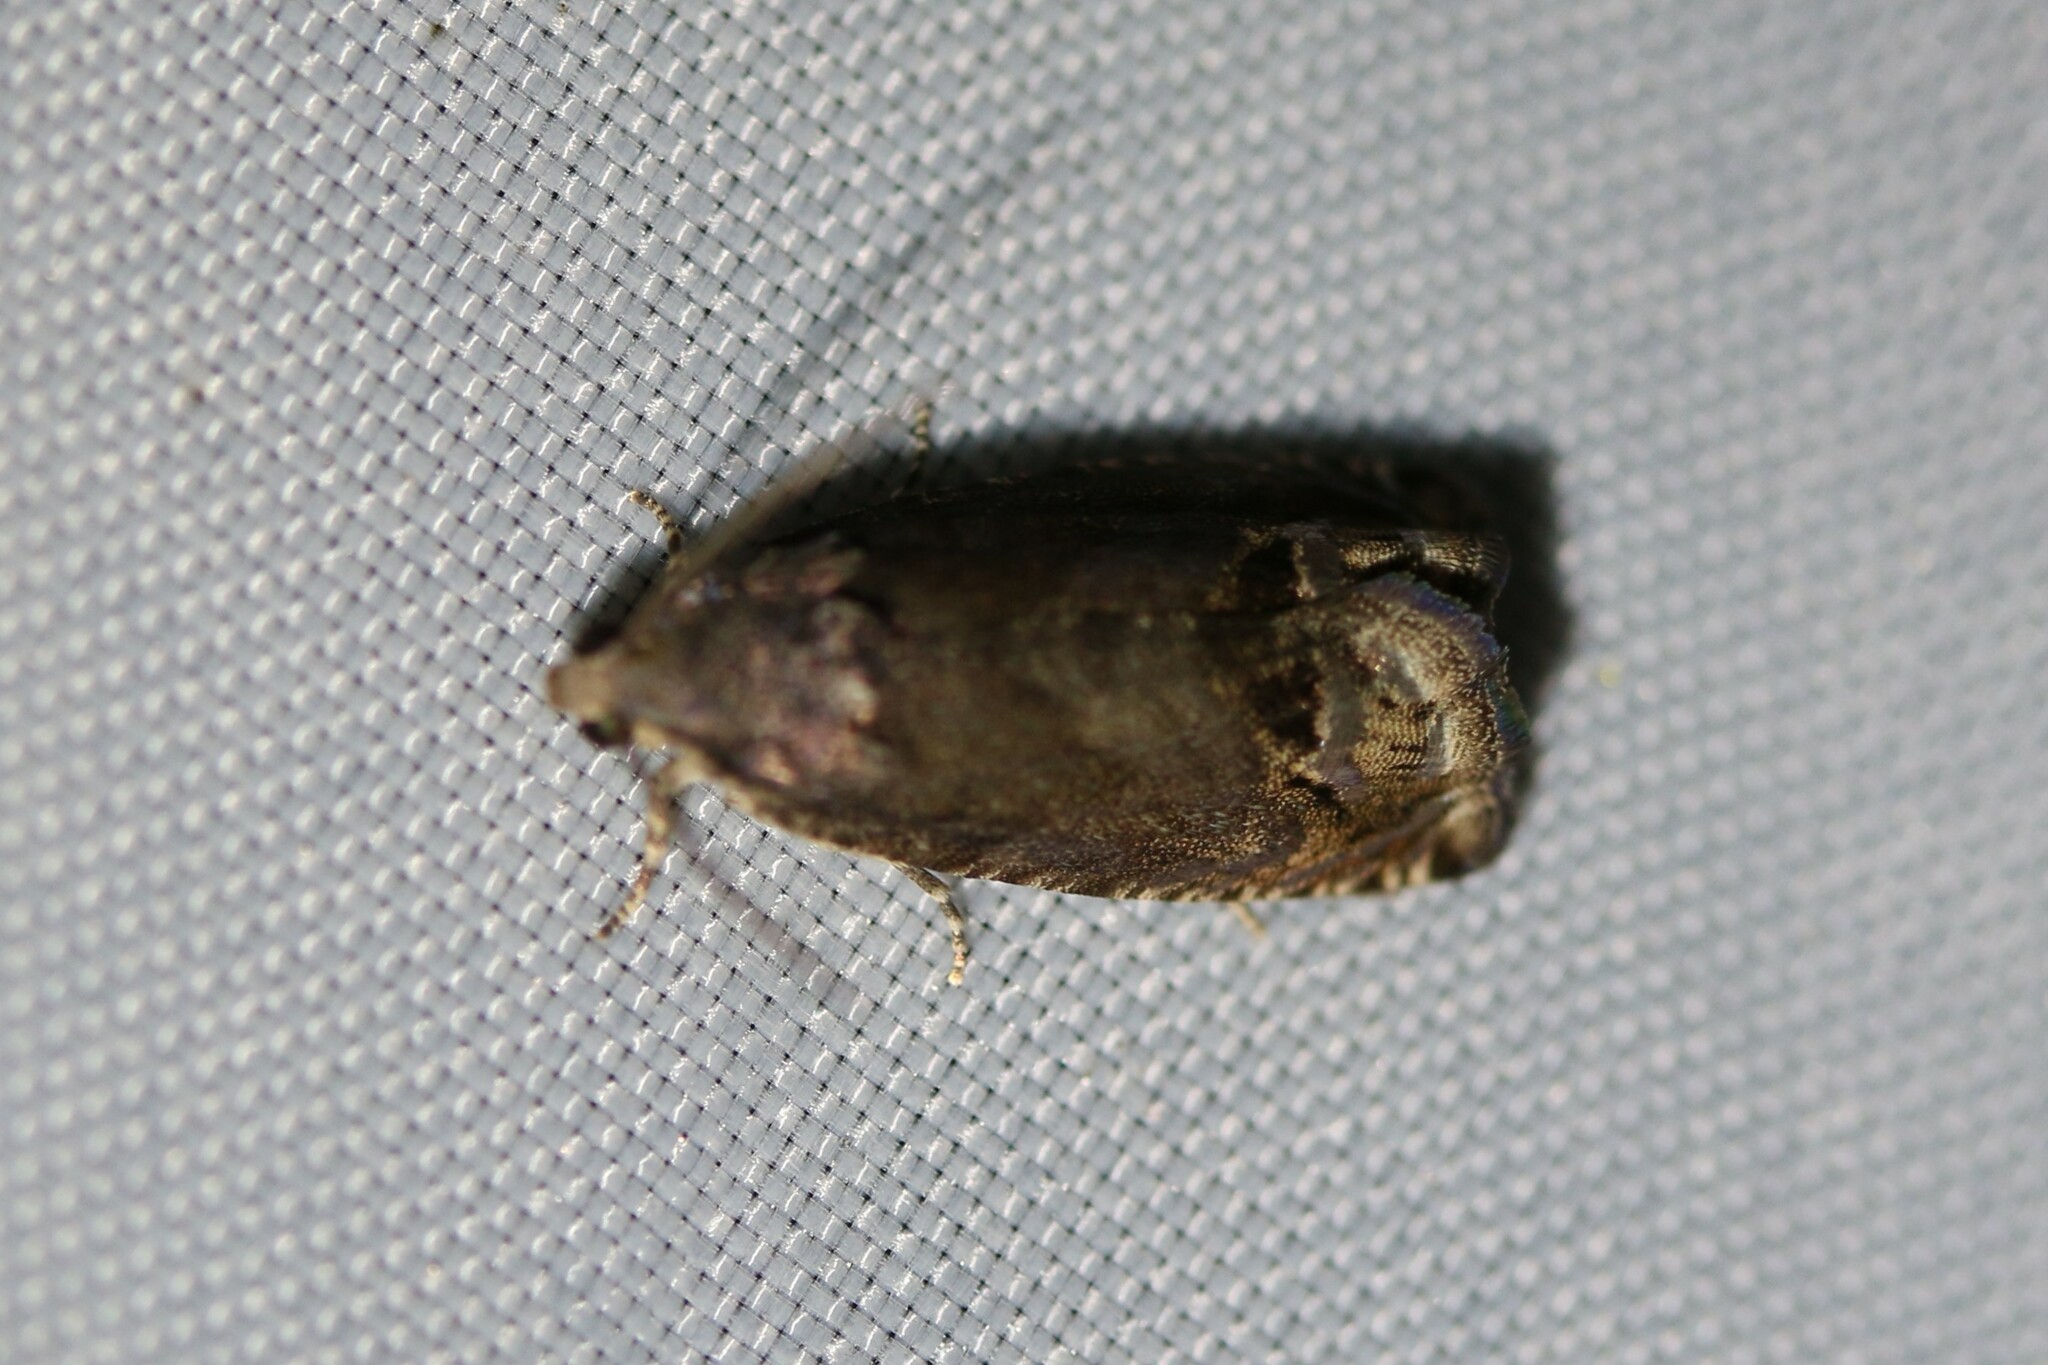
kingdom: Animalia
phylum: Arthropoda
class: Insecta
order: Lepidoptera
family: Tortricidae
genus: Cydia
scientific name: Cydia splendana
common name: De: kastanienwickler, eichenwickler es: oruga de la castaña fr: carpocapse des châtaignes it: cidia o tortrice tardiva delle castagne pt: bichado das castanhas gb: acorn moth, chestnut fruit tortrix
